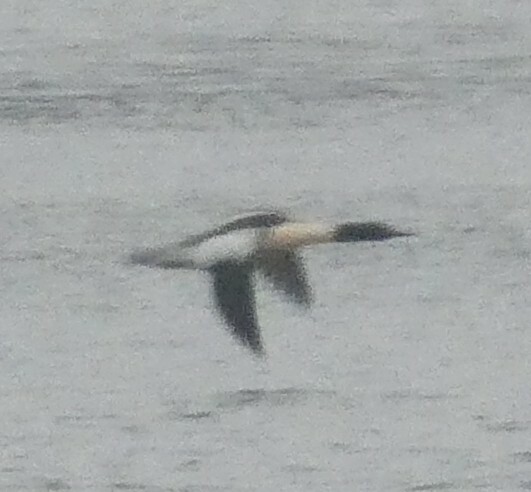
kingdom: Animalia
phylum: Chordata
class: Aves
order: Anseriformes
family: Anatidae
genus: Mergus
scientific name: Mergus merganser
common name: Common merganser
